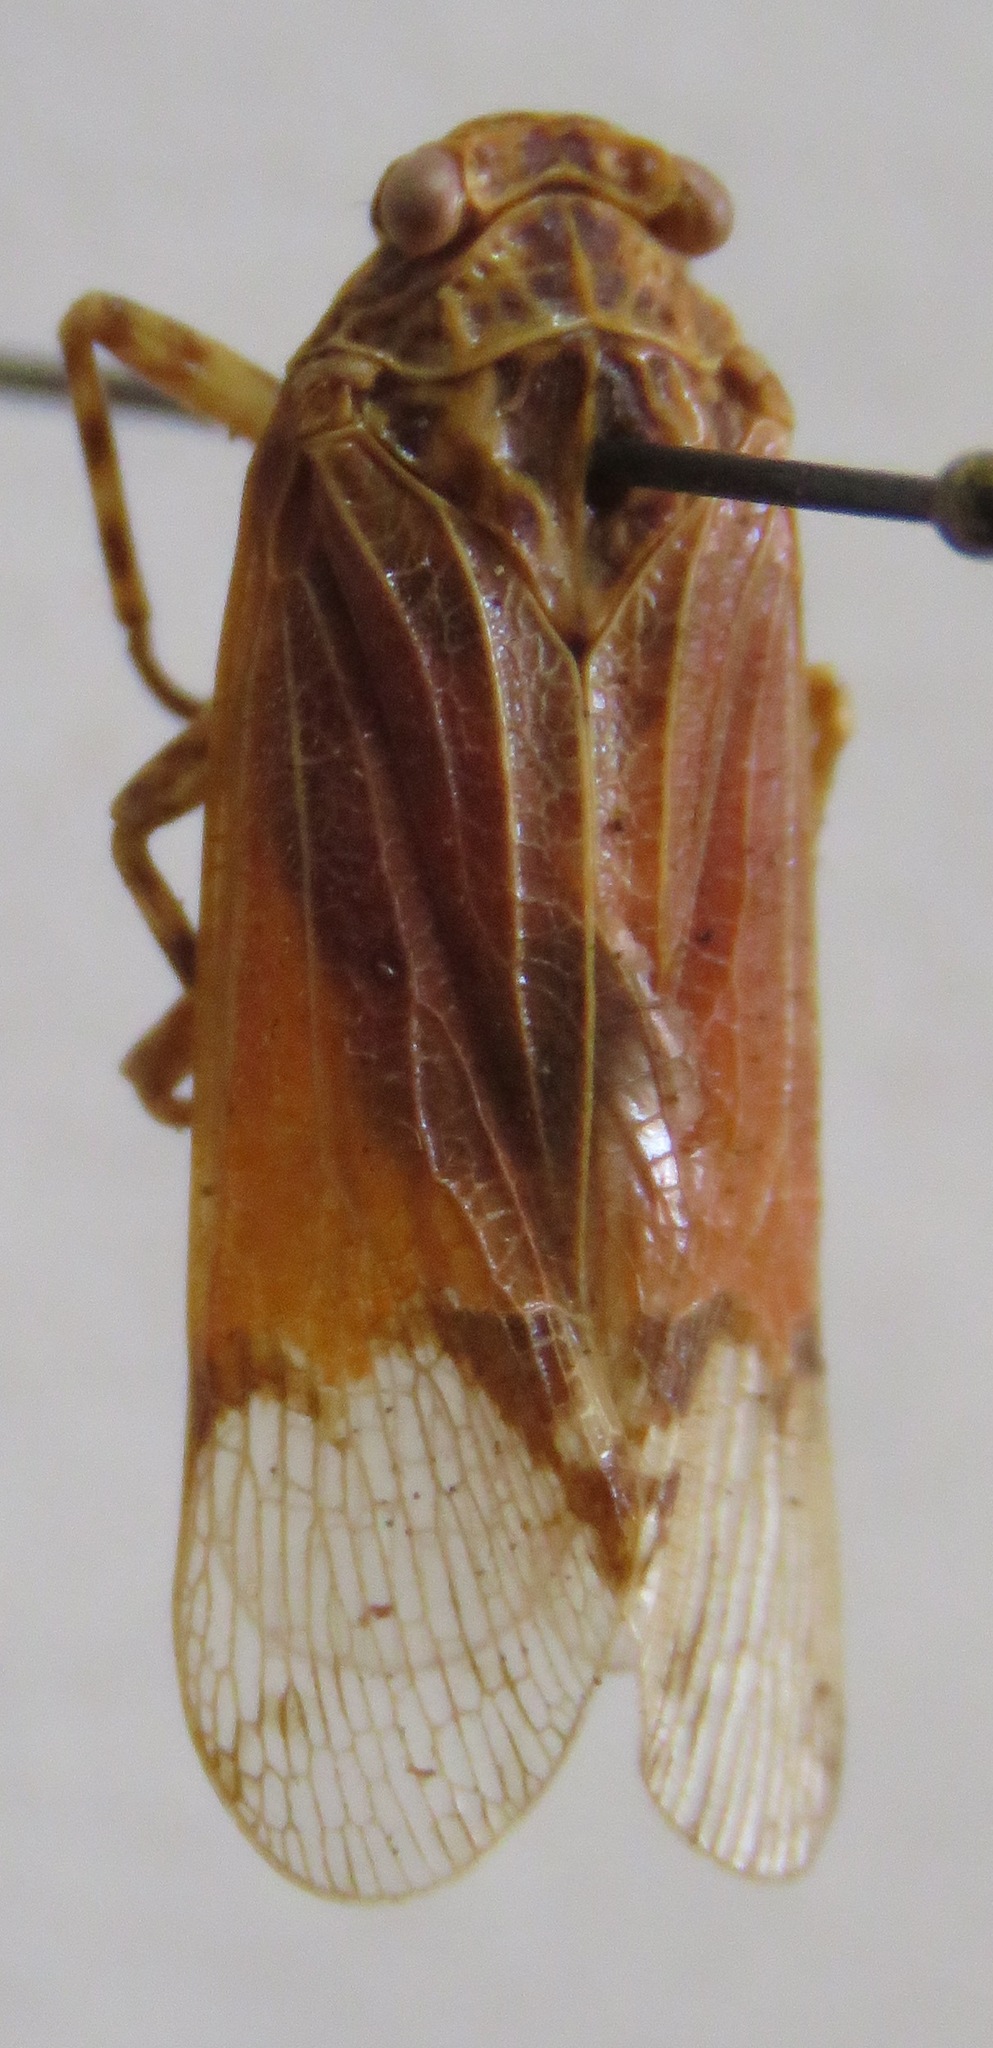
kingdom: Animalia
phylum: Arthropoda
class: Insecta
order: Hemiptera
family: Fulgoridae
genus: Hypaepa
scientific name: Hypaepa illuminata
